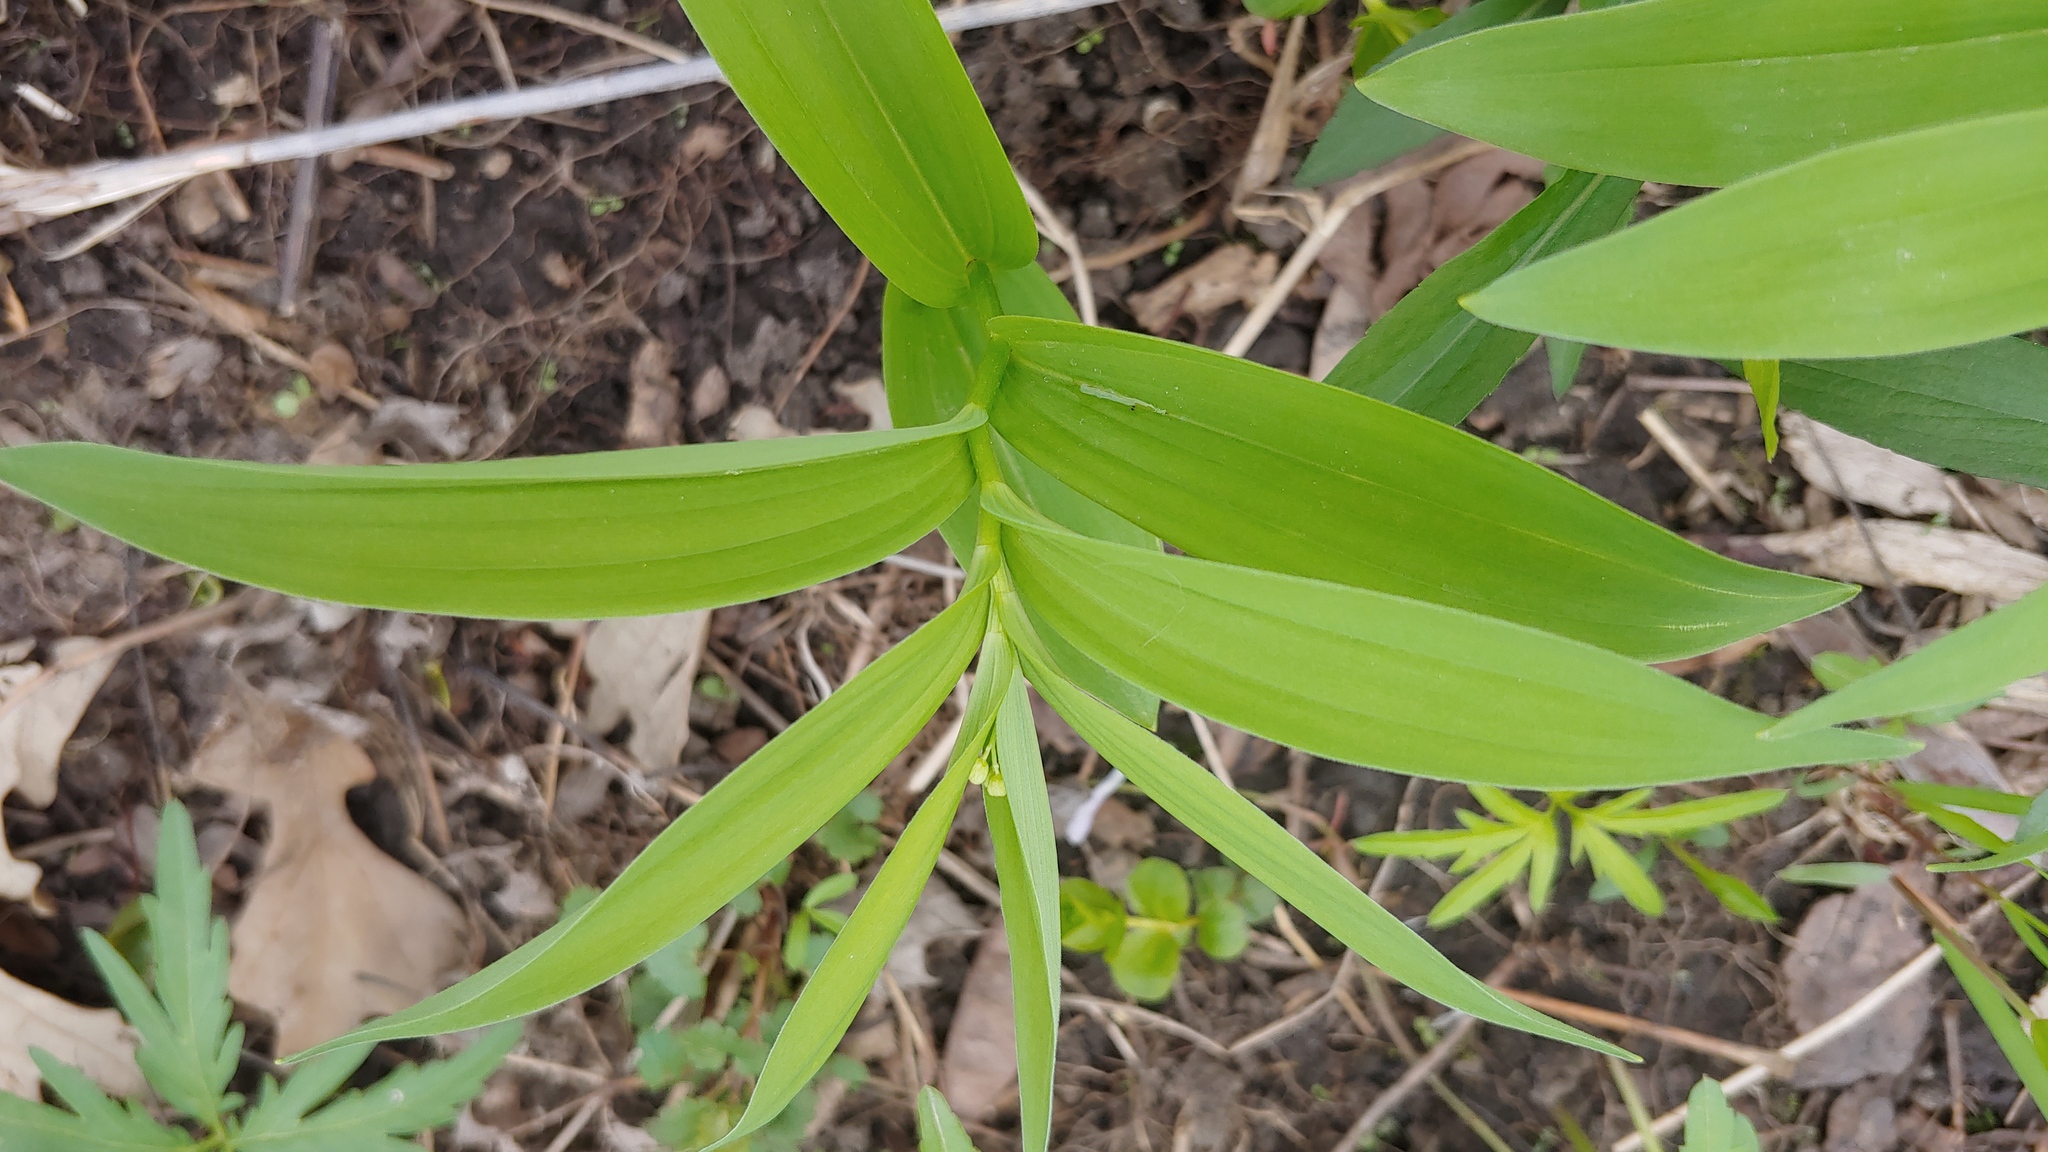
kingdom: Plantae
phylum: Tracheophyta
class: Liliopsida
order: Asparagales
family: Asparagaceae
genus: Maianthemum
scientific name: Maianthemum stellatum
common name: Little false solomon's seal
